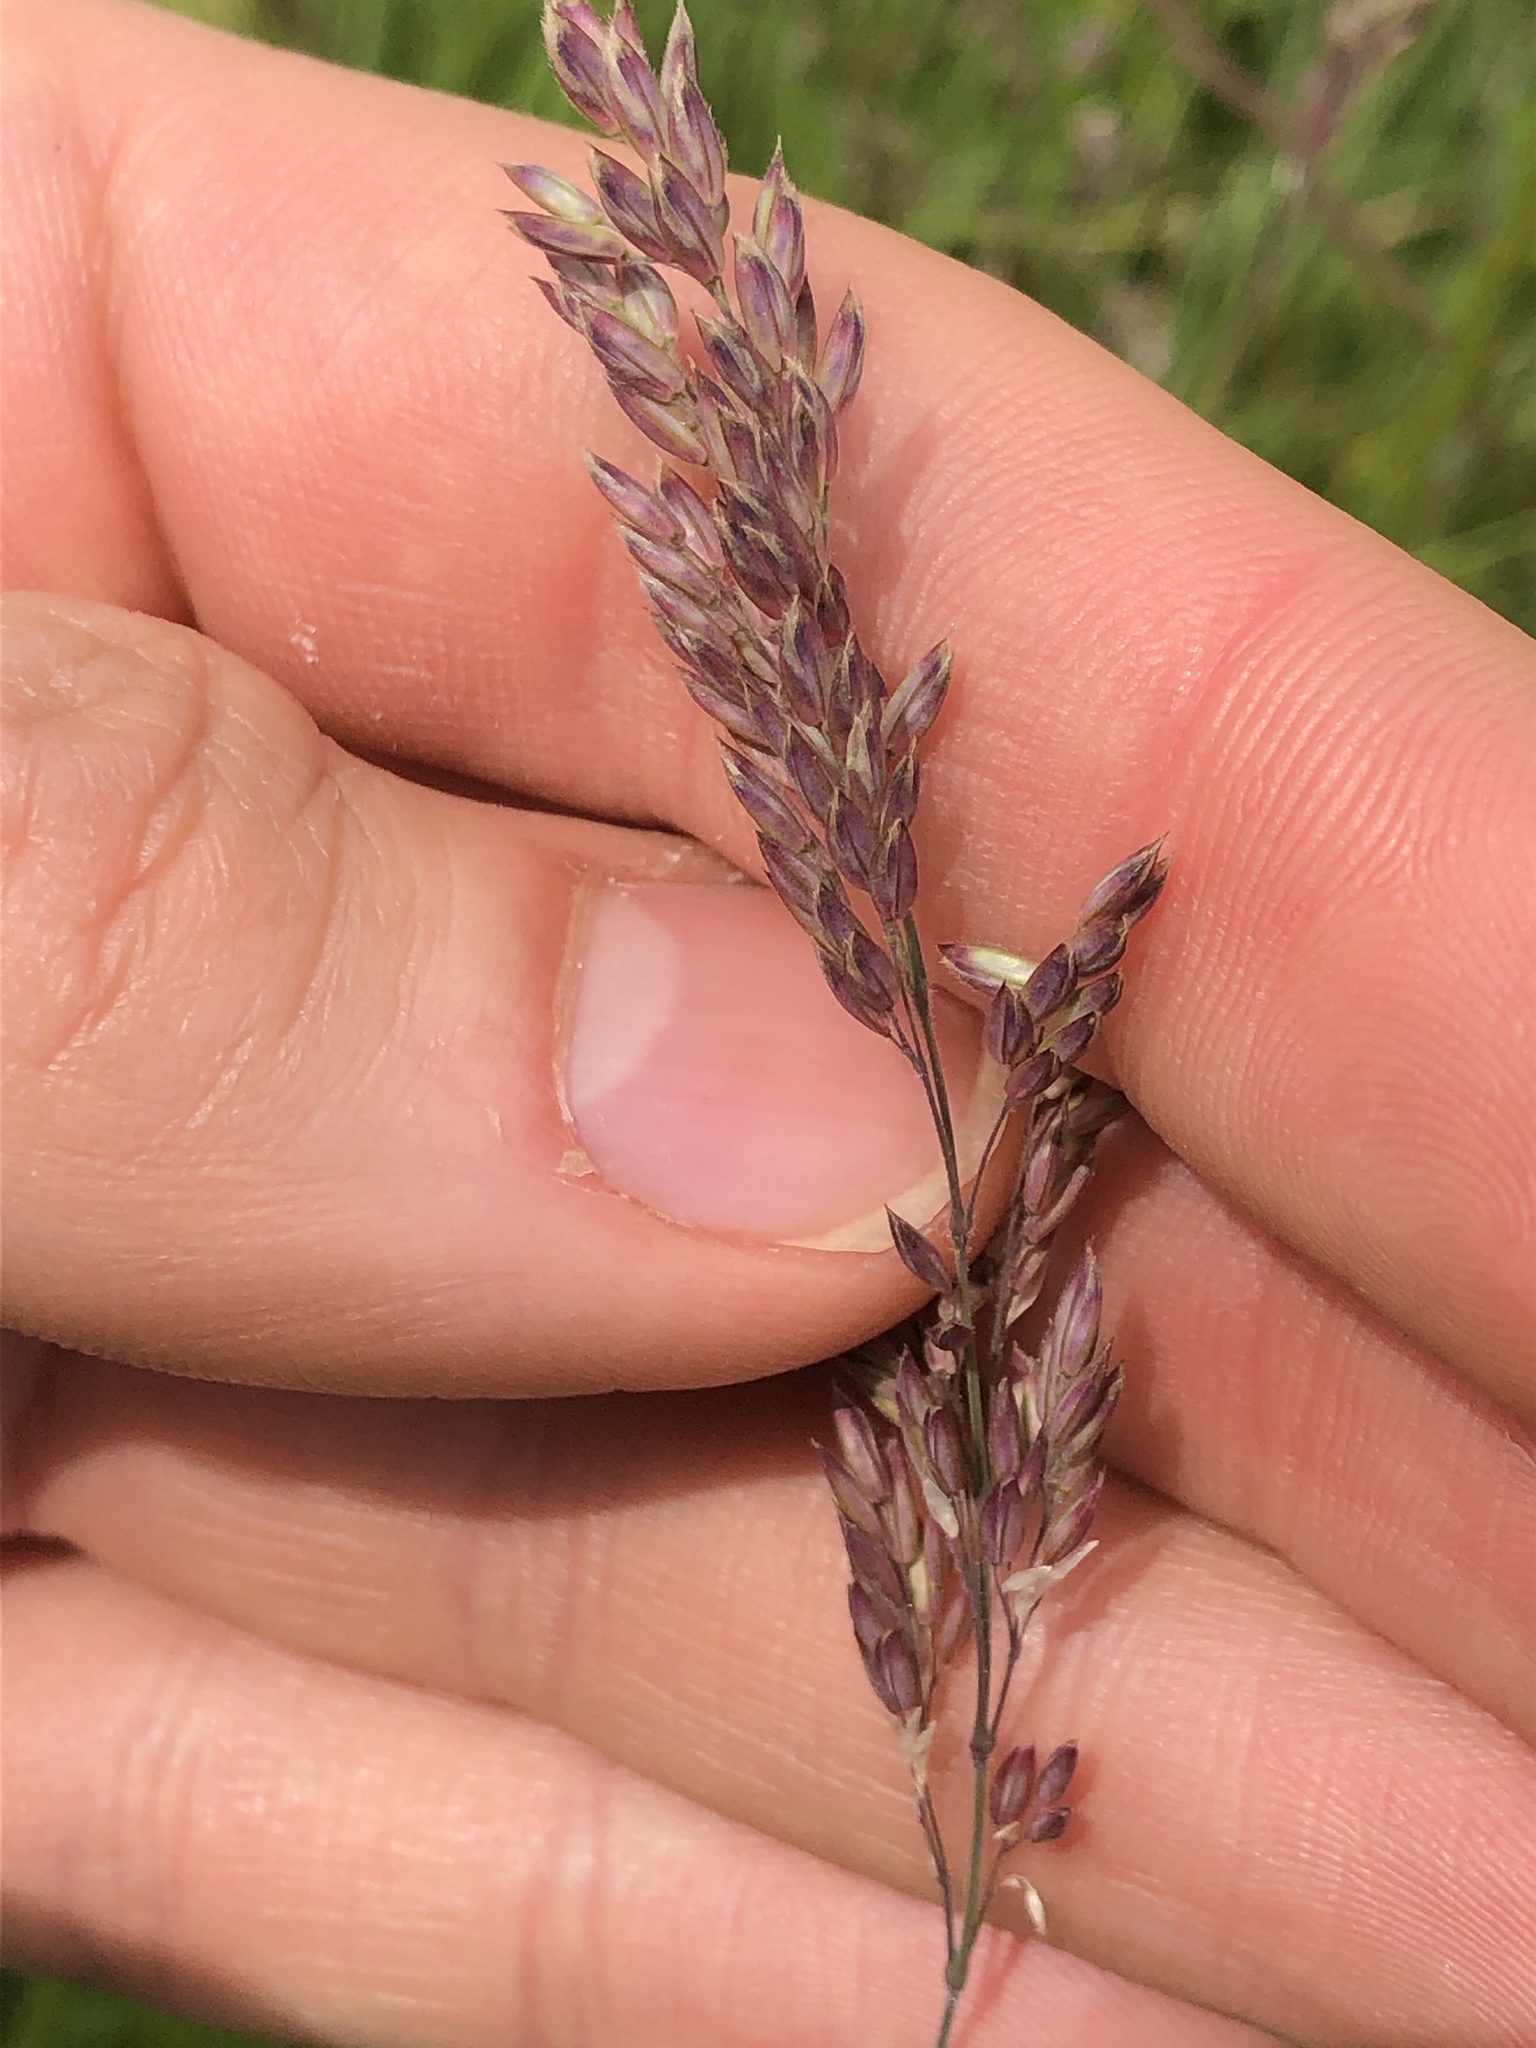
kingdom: Plantae
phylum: Tracheophyta
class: Liliopsida
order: Poales
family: Poaceae
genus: Holcus
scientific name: Holcus lanatus
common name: Yorkshire-fog
